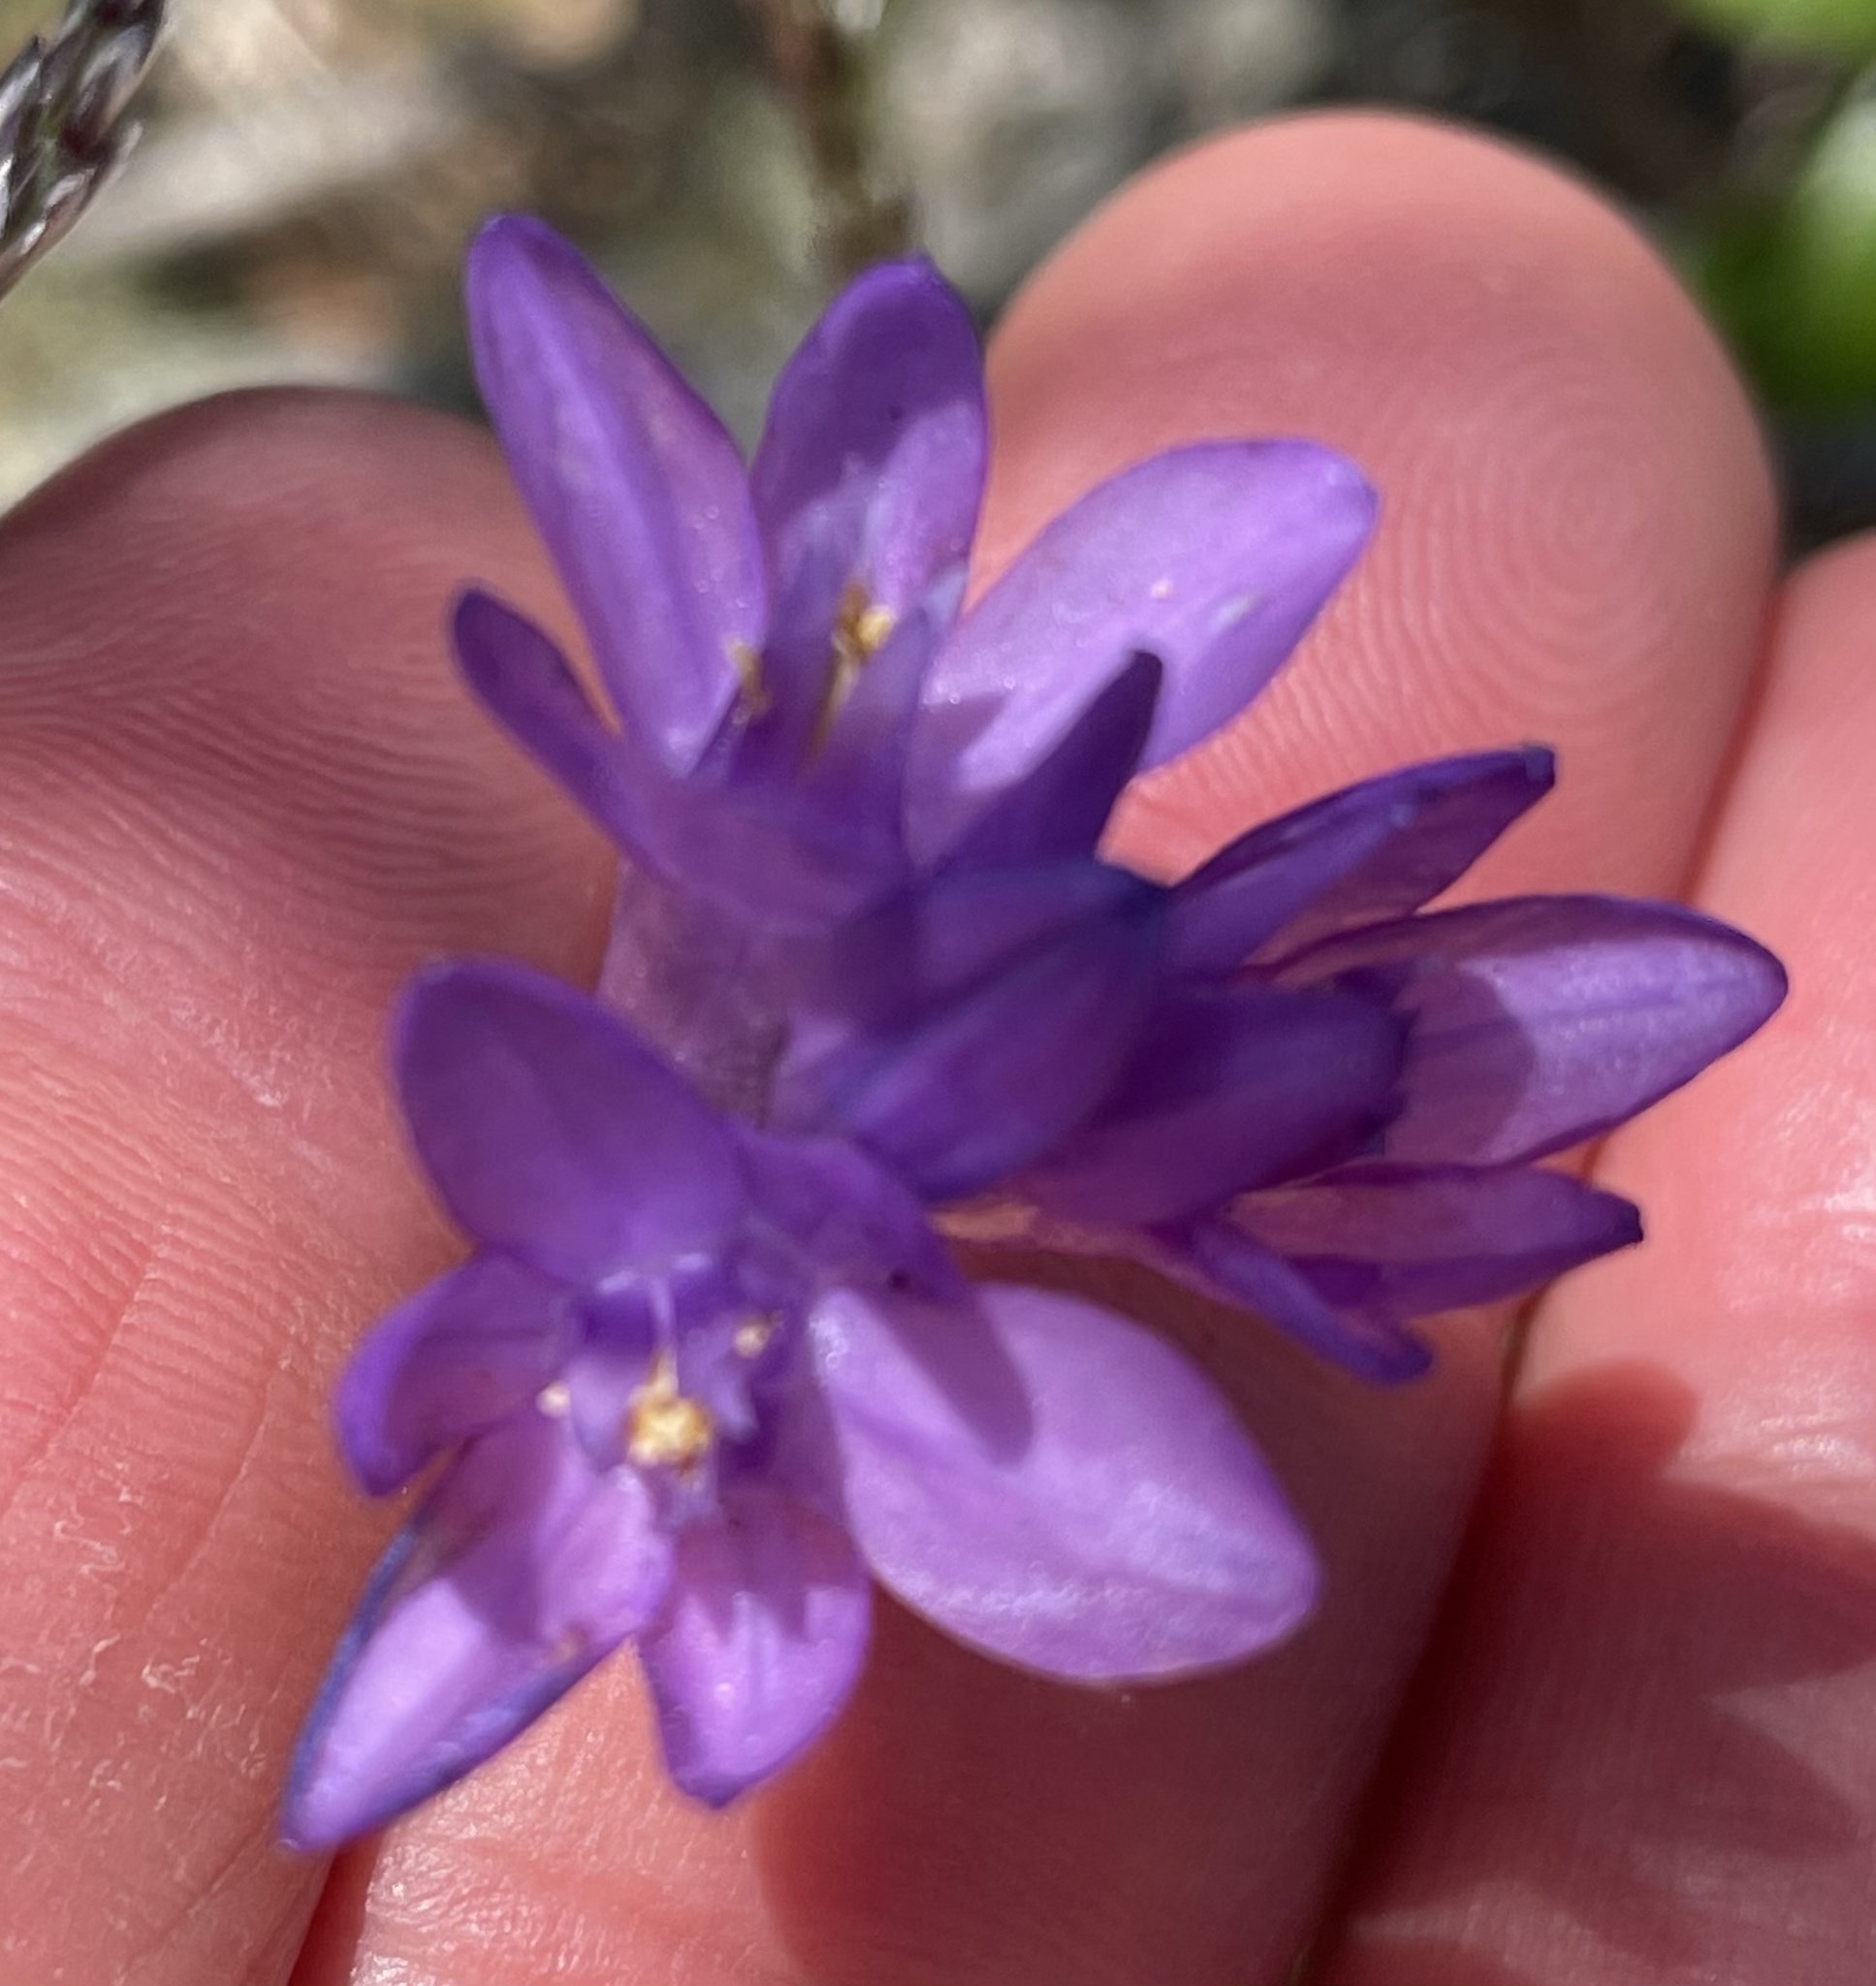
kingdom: Plantae
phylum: Tracheophyta
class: Liliopsida
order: Asparagales
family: Asparagaceae
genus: Dipterostemon
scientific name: Dipterostemon capitatus
